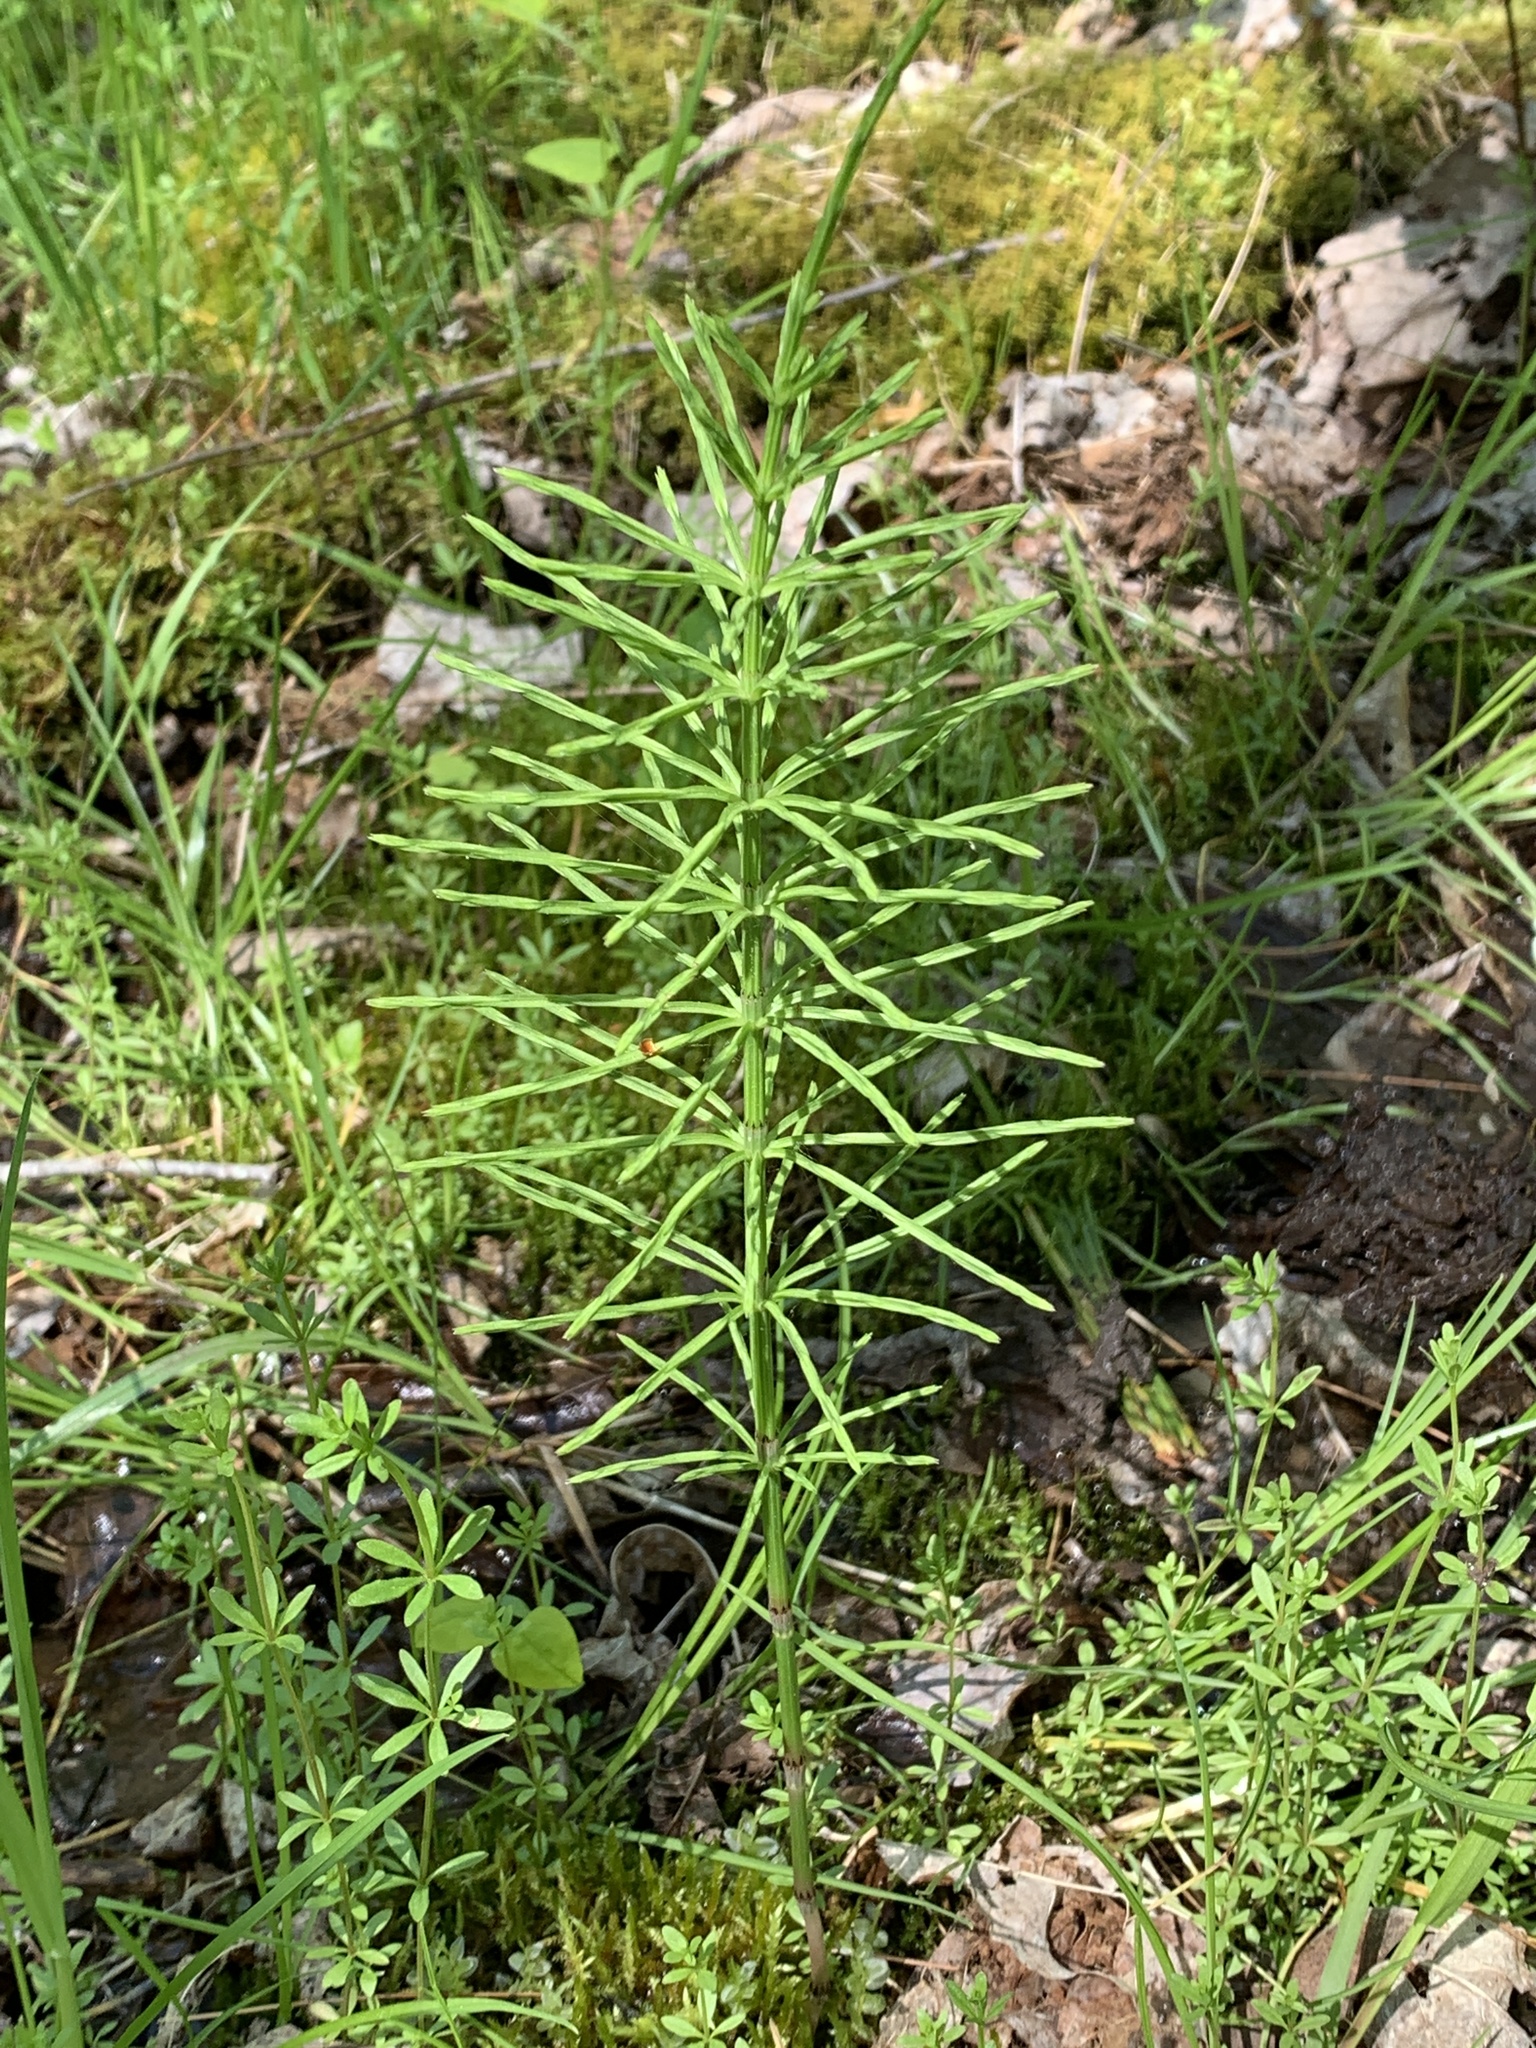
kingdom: Plantae
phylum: Tracheophyta
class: Polypodiopsida
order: Equisetales
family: Equisetaceae
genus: Equisetum
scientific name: Equisetum arvense
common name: Field horsetail
